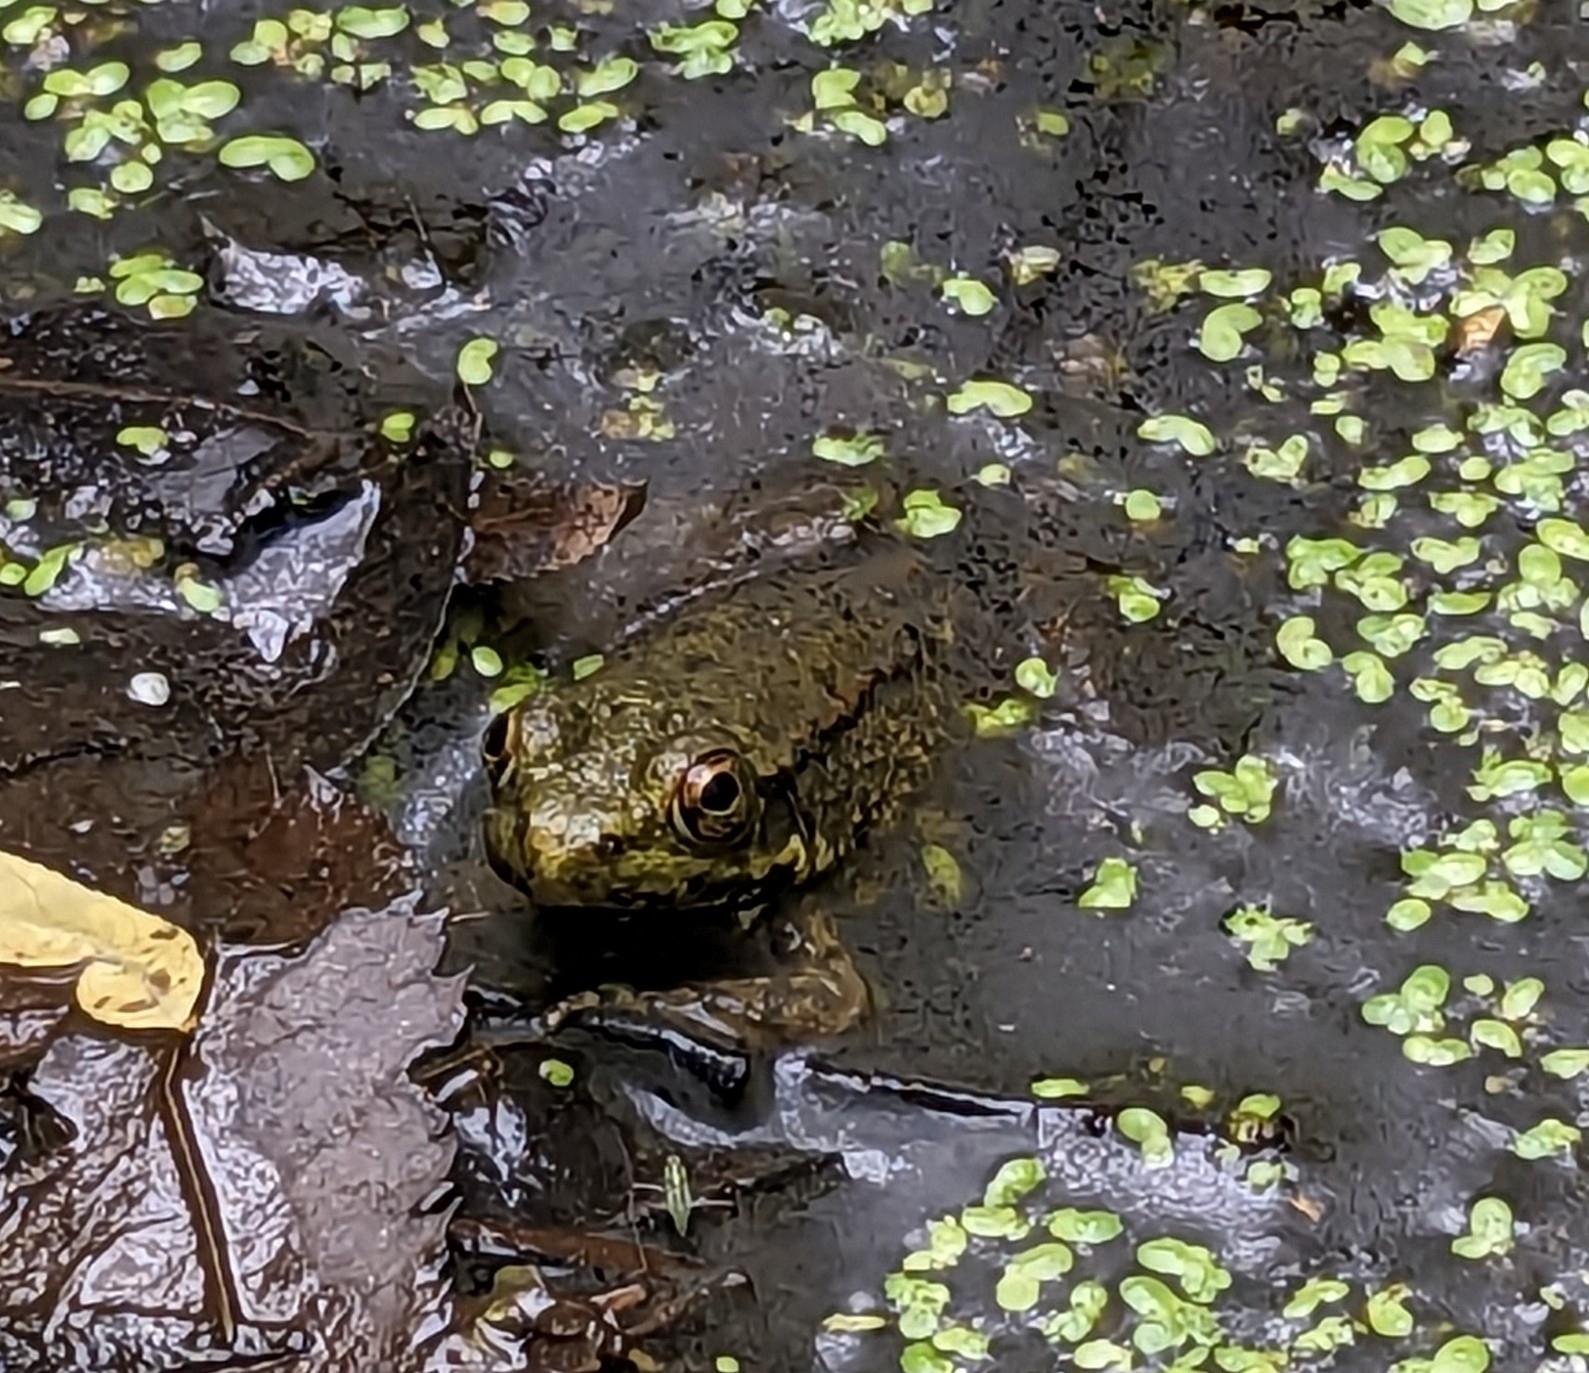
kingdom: Animalia
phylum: Chordata
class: Amphibia
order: Anura
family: Ranidae
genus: Lithobates
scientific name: Lithobates clamitans
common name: Green frog
